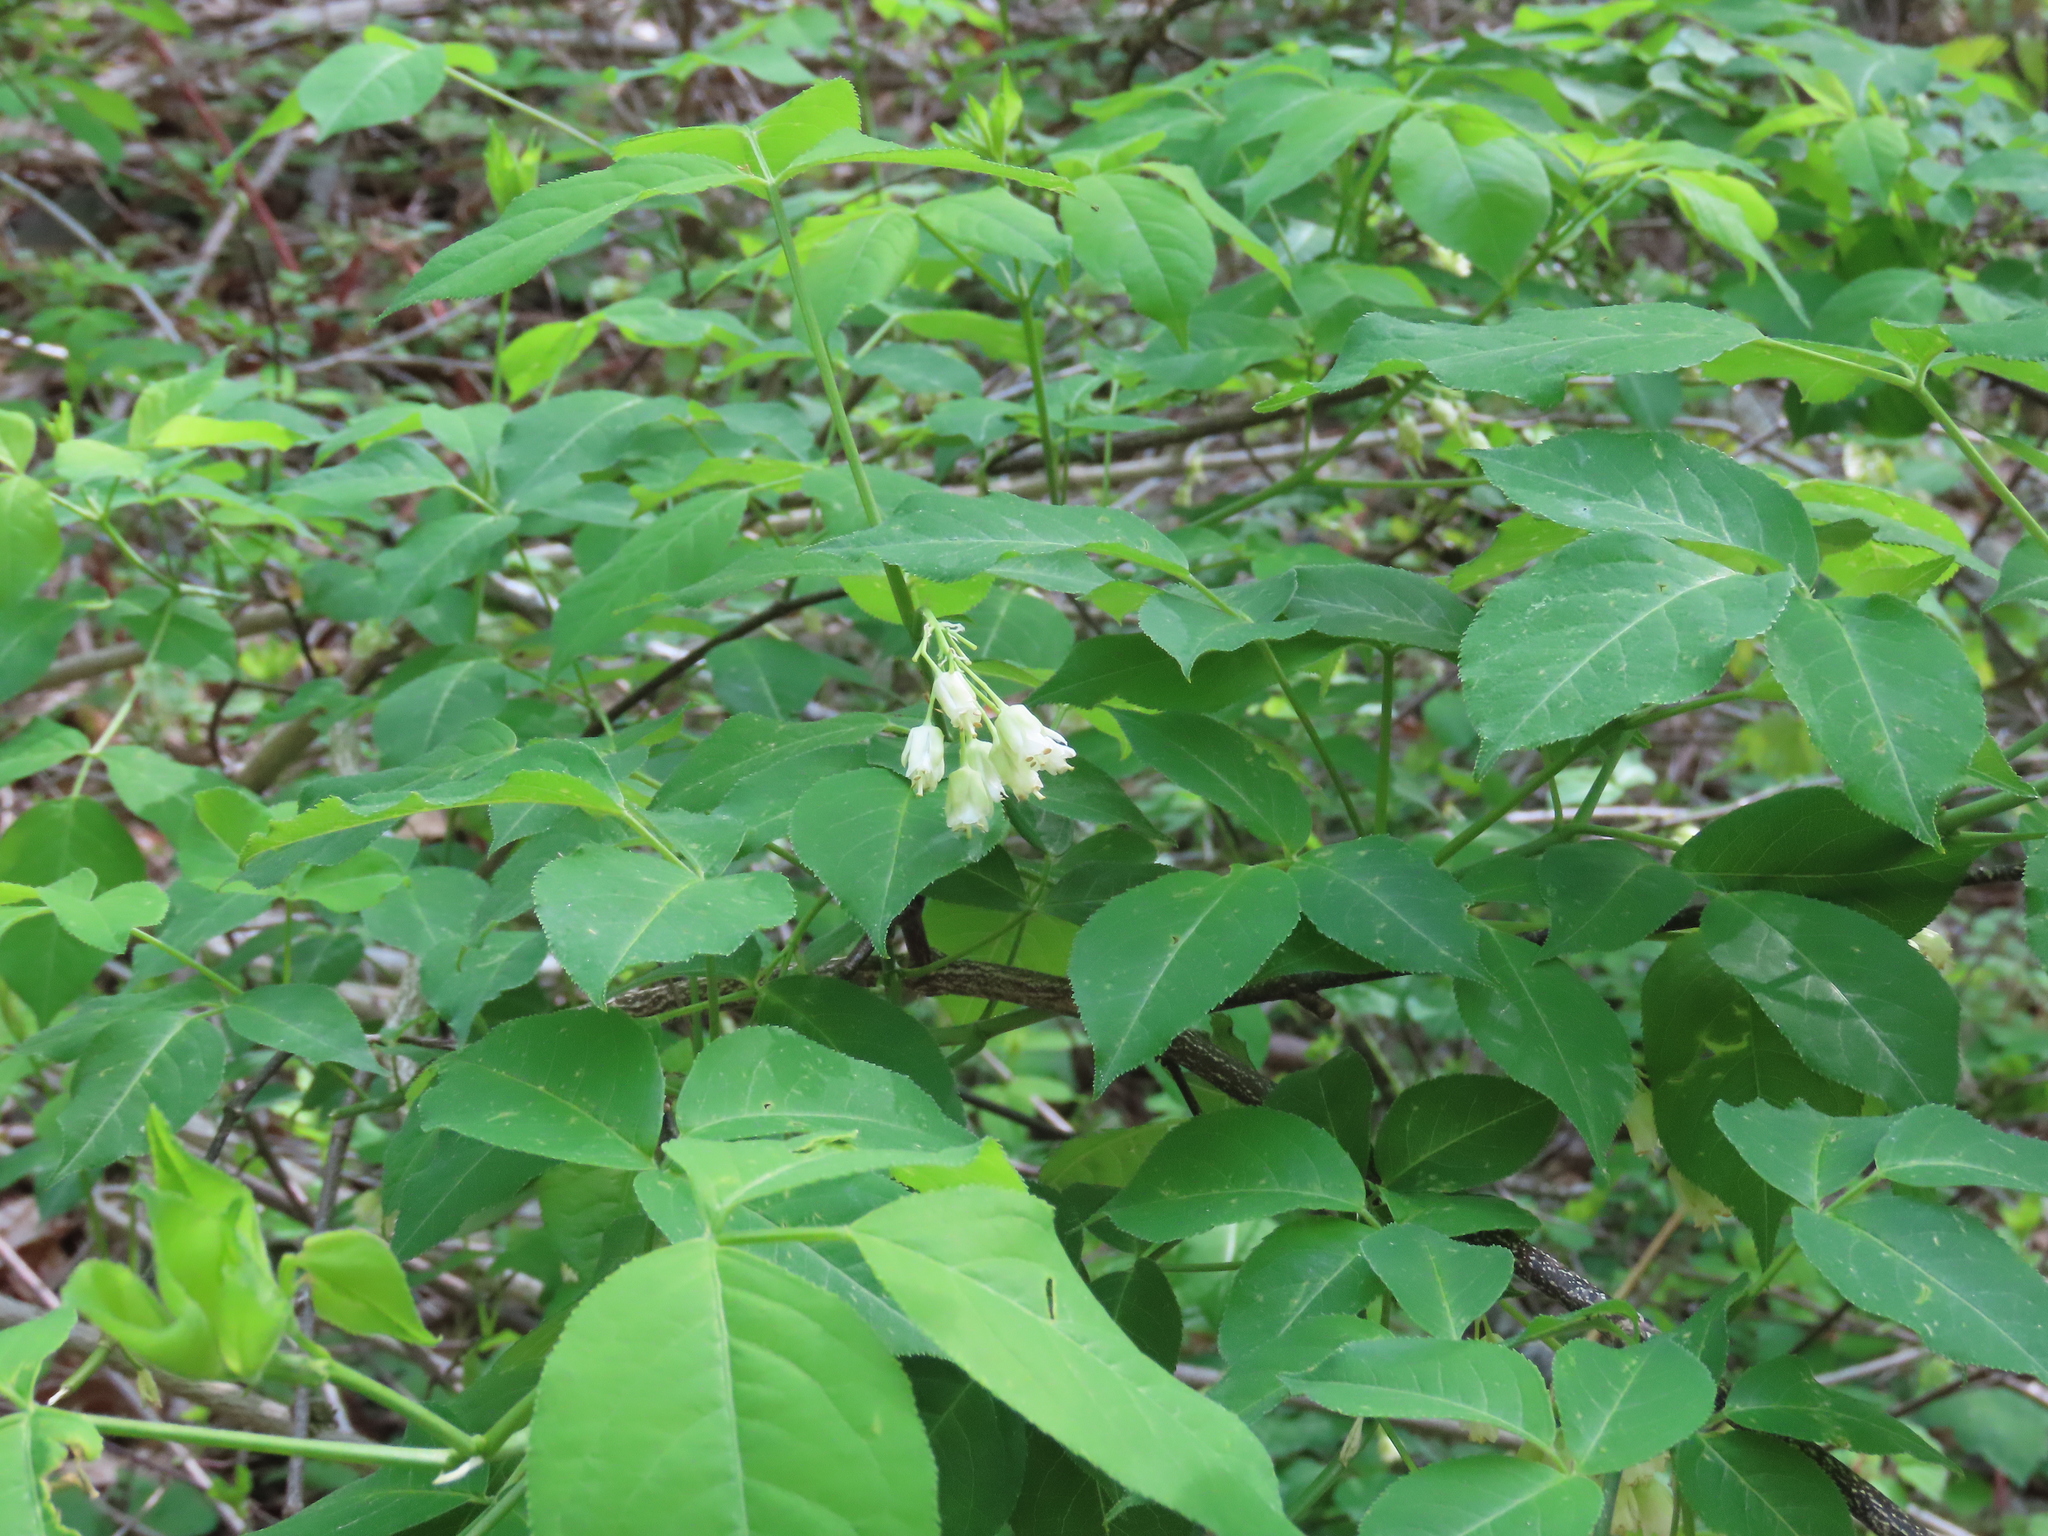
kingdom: Plantae
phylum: Tracheophyta
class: Magnoliopsida
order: Crossosomatales
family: Staphyleaceae
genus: Staphylea
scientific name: Staphylea trifolia
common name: American bladdernut
